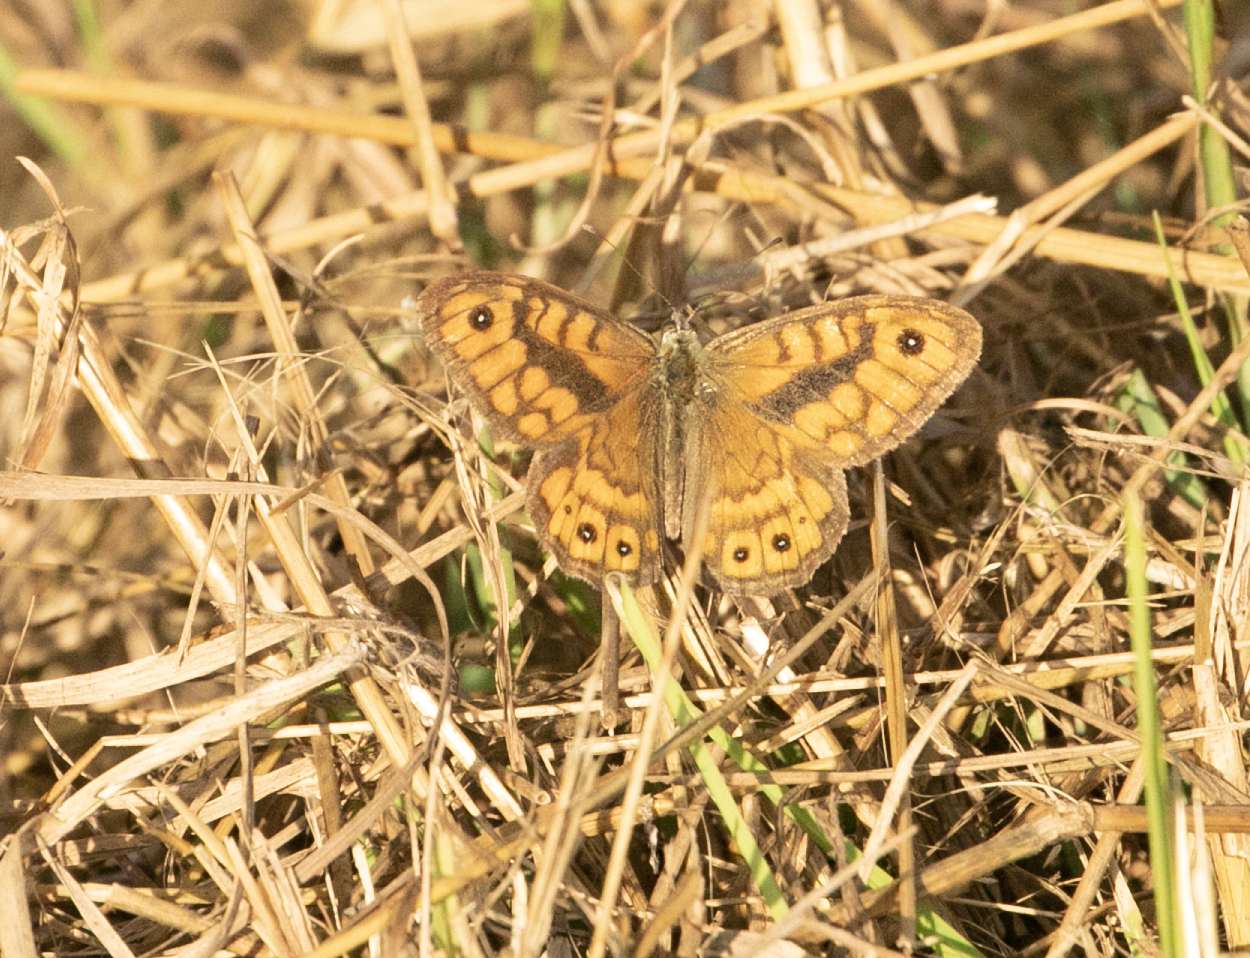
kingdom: Animalia
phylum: Arthropoda
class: Insecta
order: Lepidoptera
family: Nymphalidae
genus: Pararge
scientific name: Pararge Lasiommata megera
